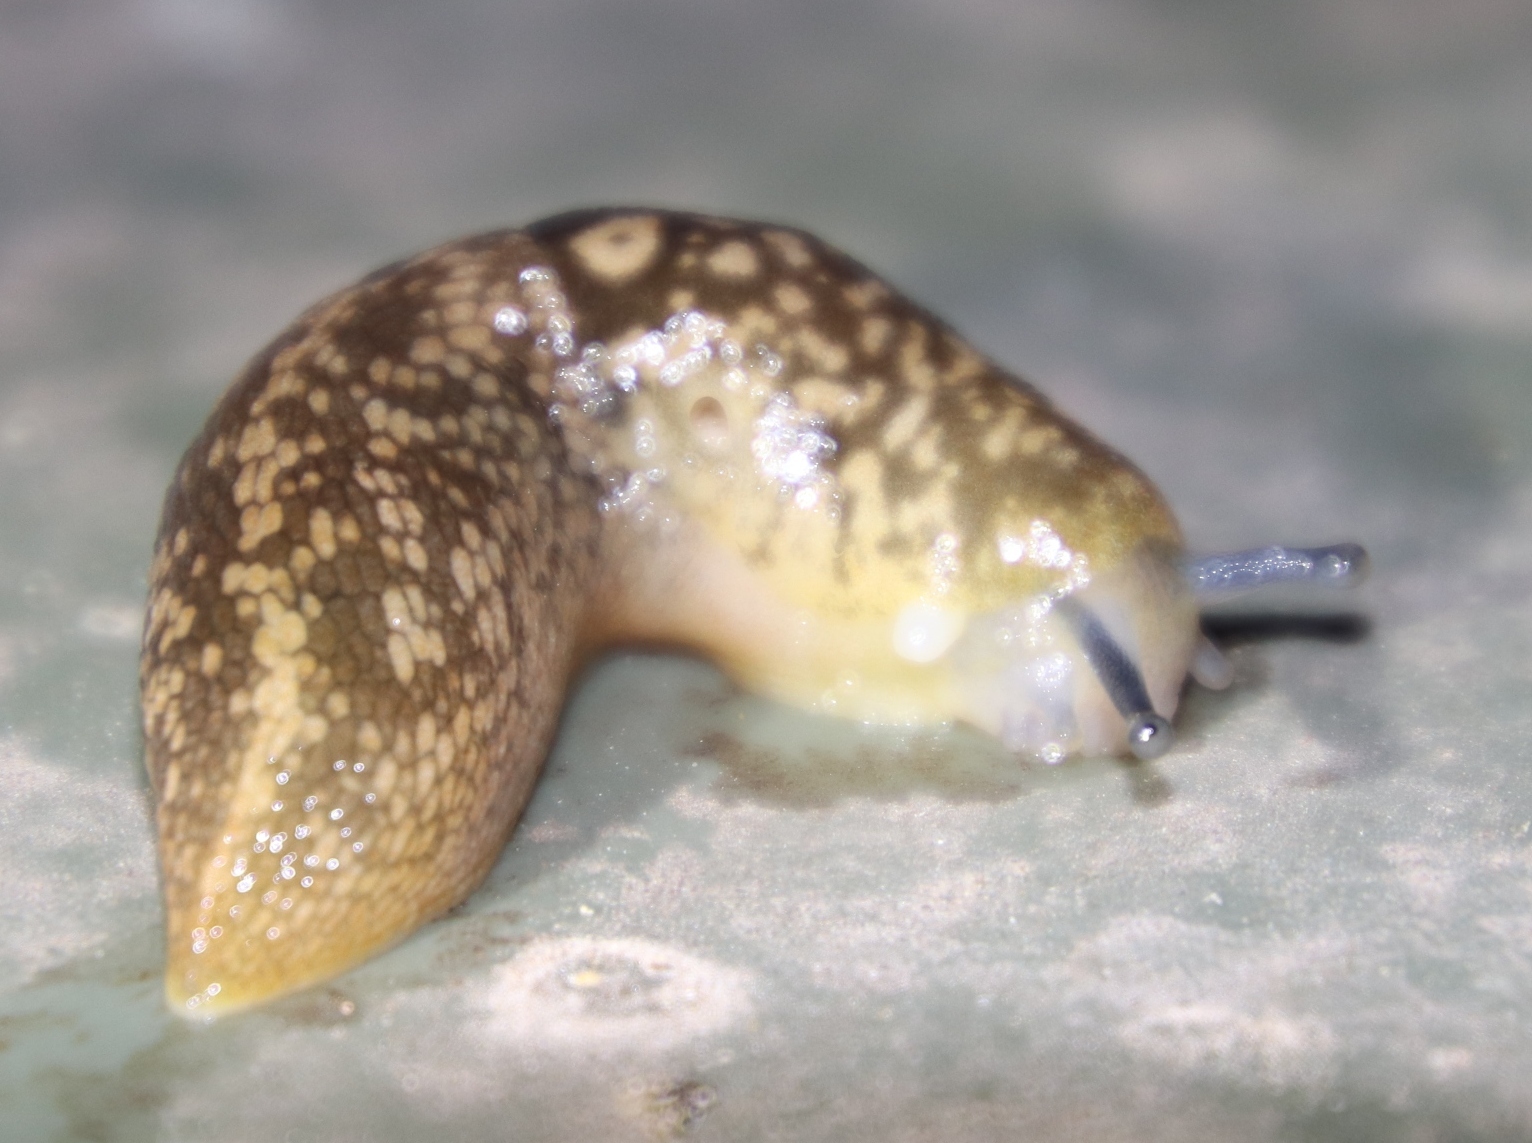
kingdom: Animalia
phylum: Mollusca
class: Gastropoda
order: Stylommatophora
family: Limacidae
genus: Limacus
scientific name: Limacus flavus
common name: Yellow gardenslug
